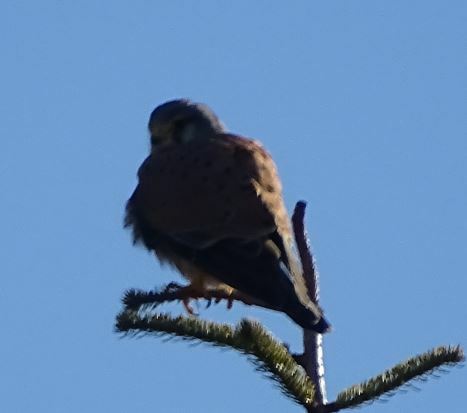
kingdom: Animalia
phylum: Chordata
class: Aves
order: Falconiformes
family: Falconidae
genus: Falco
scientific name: Falco tinnunculus
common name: Common kestrel
